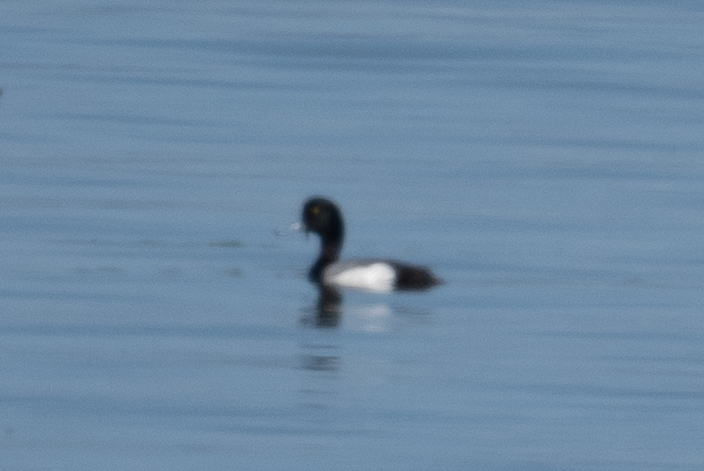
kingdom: Animalia
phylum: Chordata
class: Aves
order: Anseriformes
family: Anatidae
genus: Aythya
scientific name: Aythya marila
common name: Greater scaup
